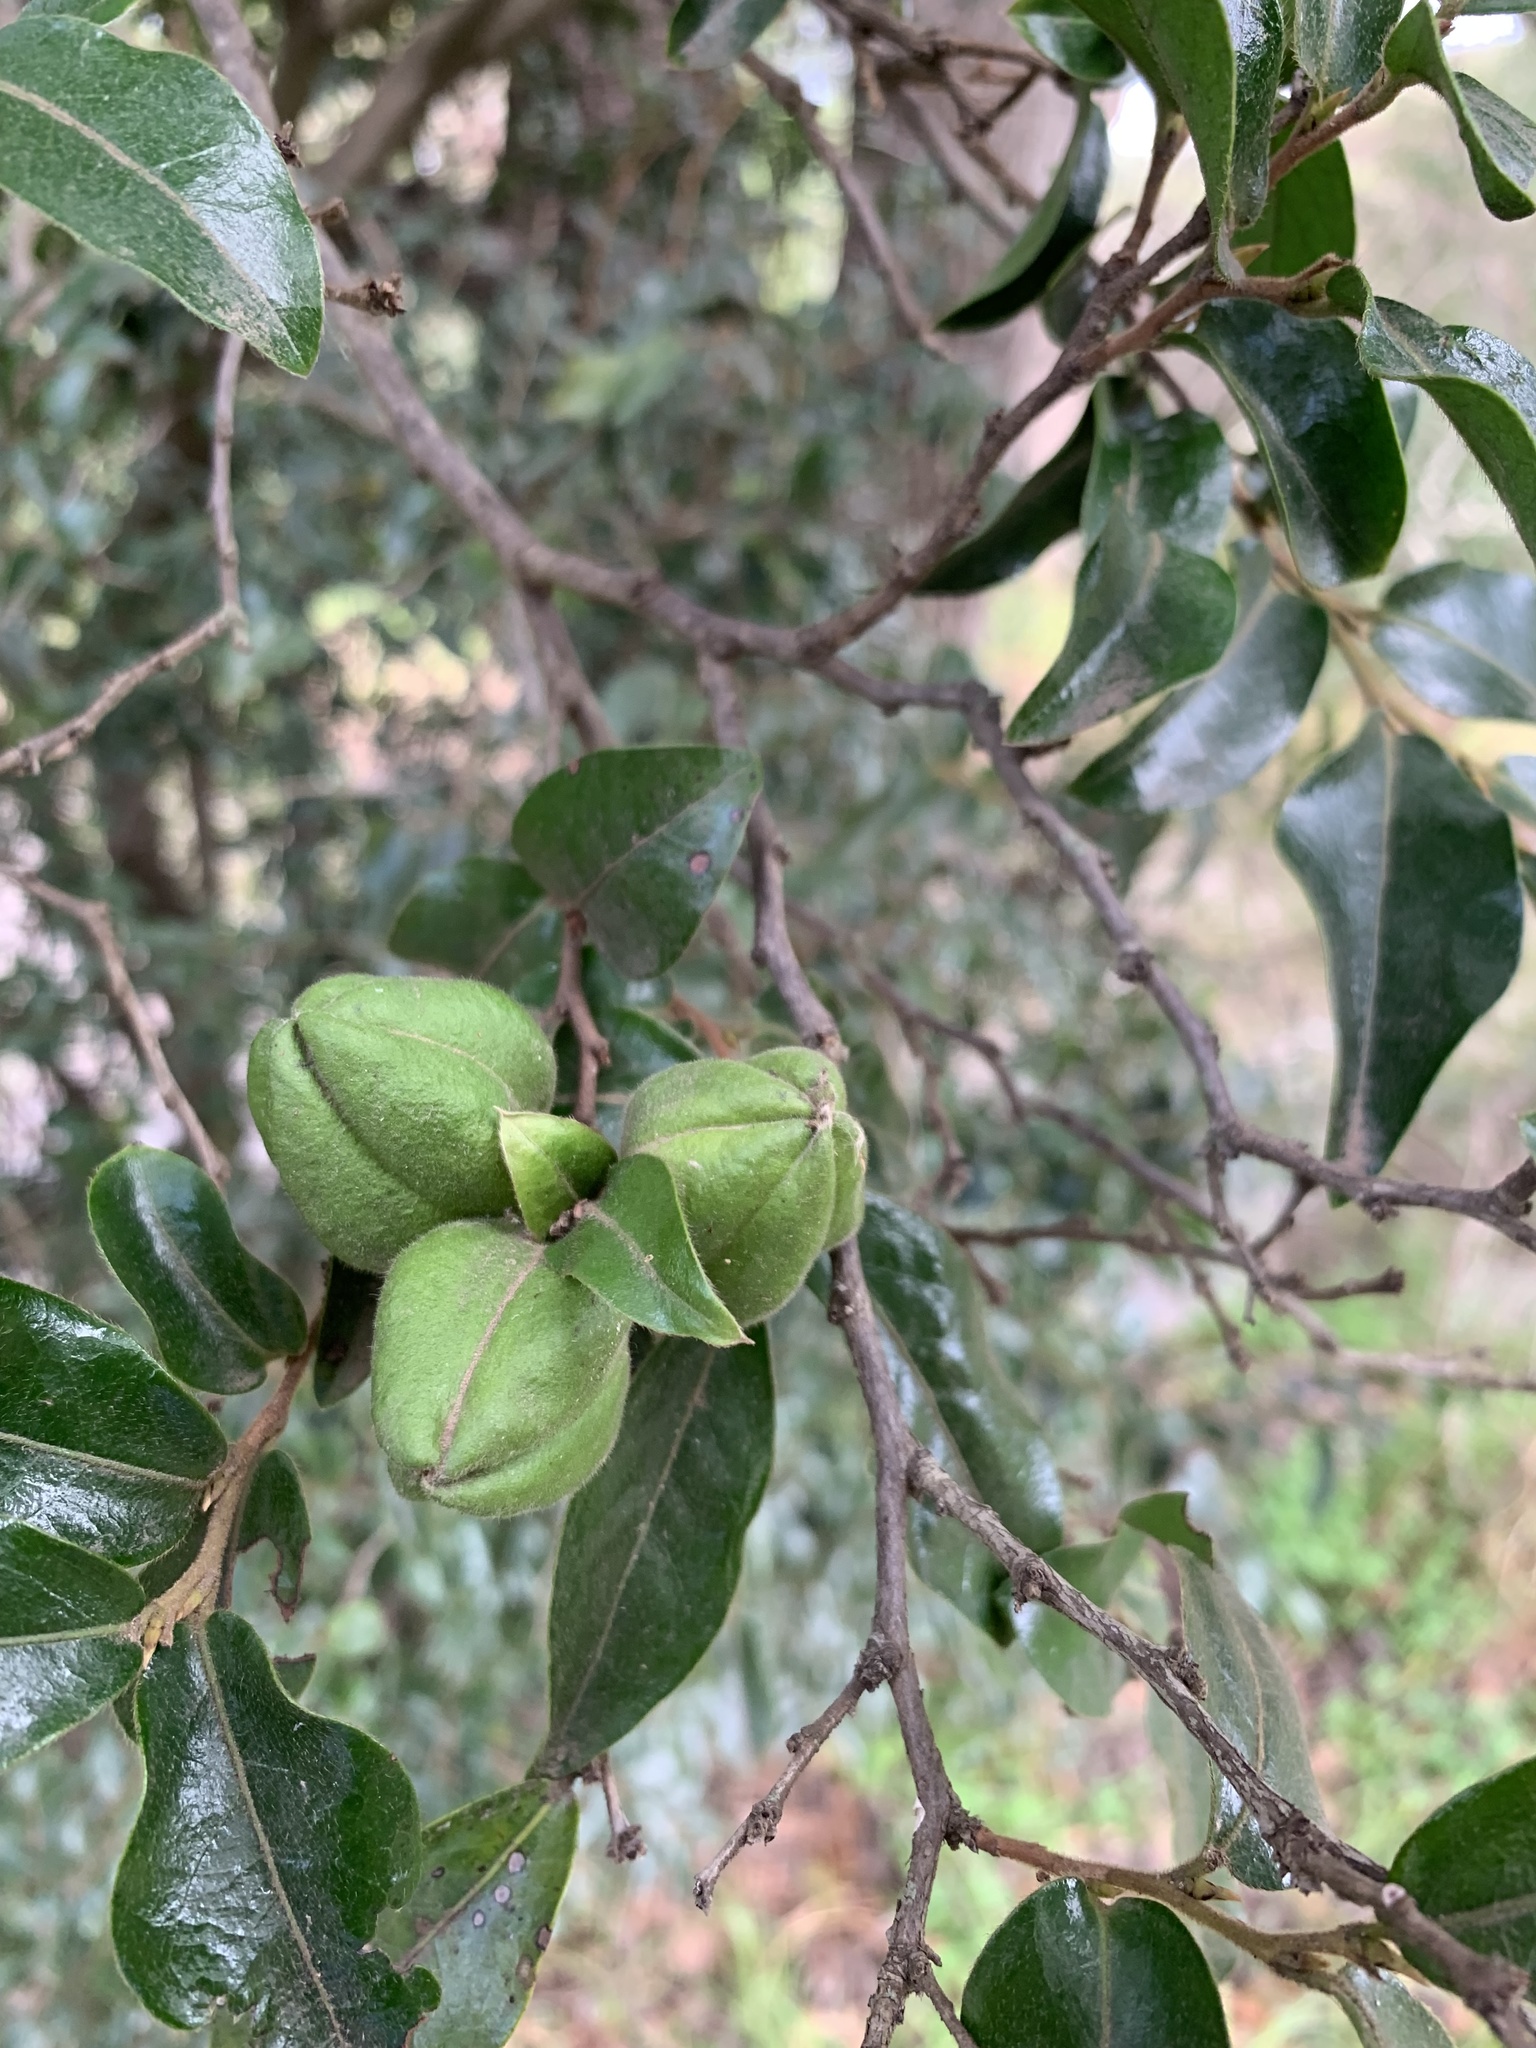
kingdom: Plantae
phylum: Tracheophyta
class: Magnoliopsida
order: Ericales
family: Ebenaceae
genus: Diospyros
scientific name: Diospyros whyteana
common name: Bladder-nut
